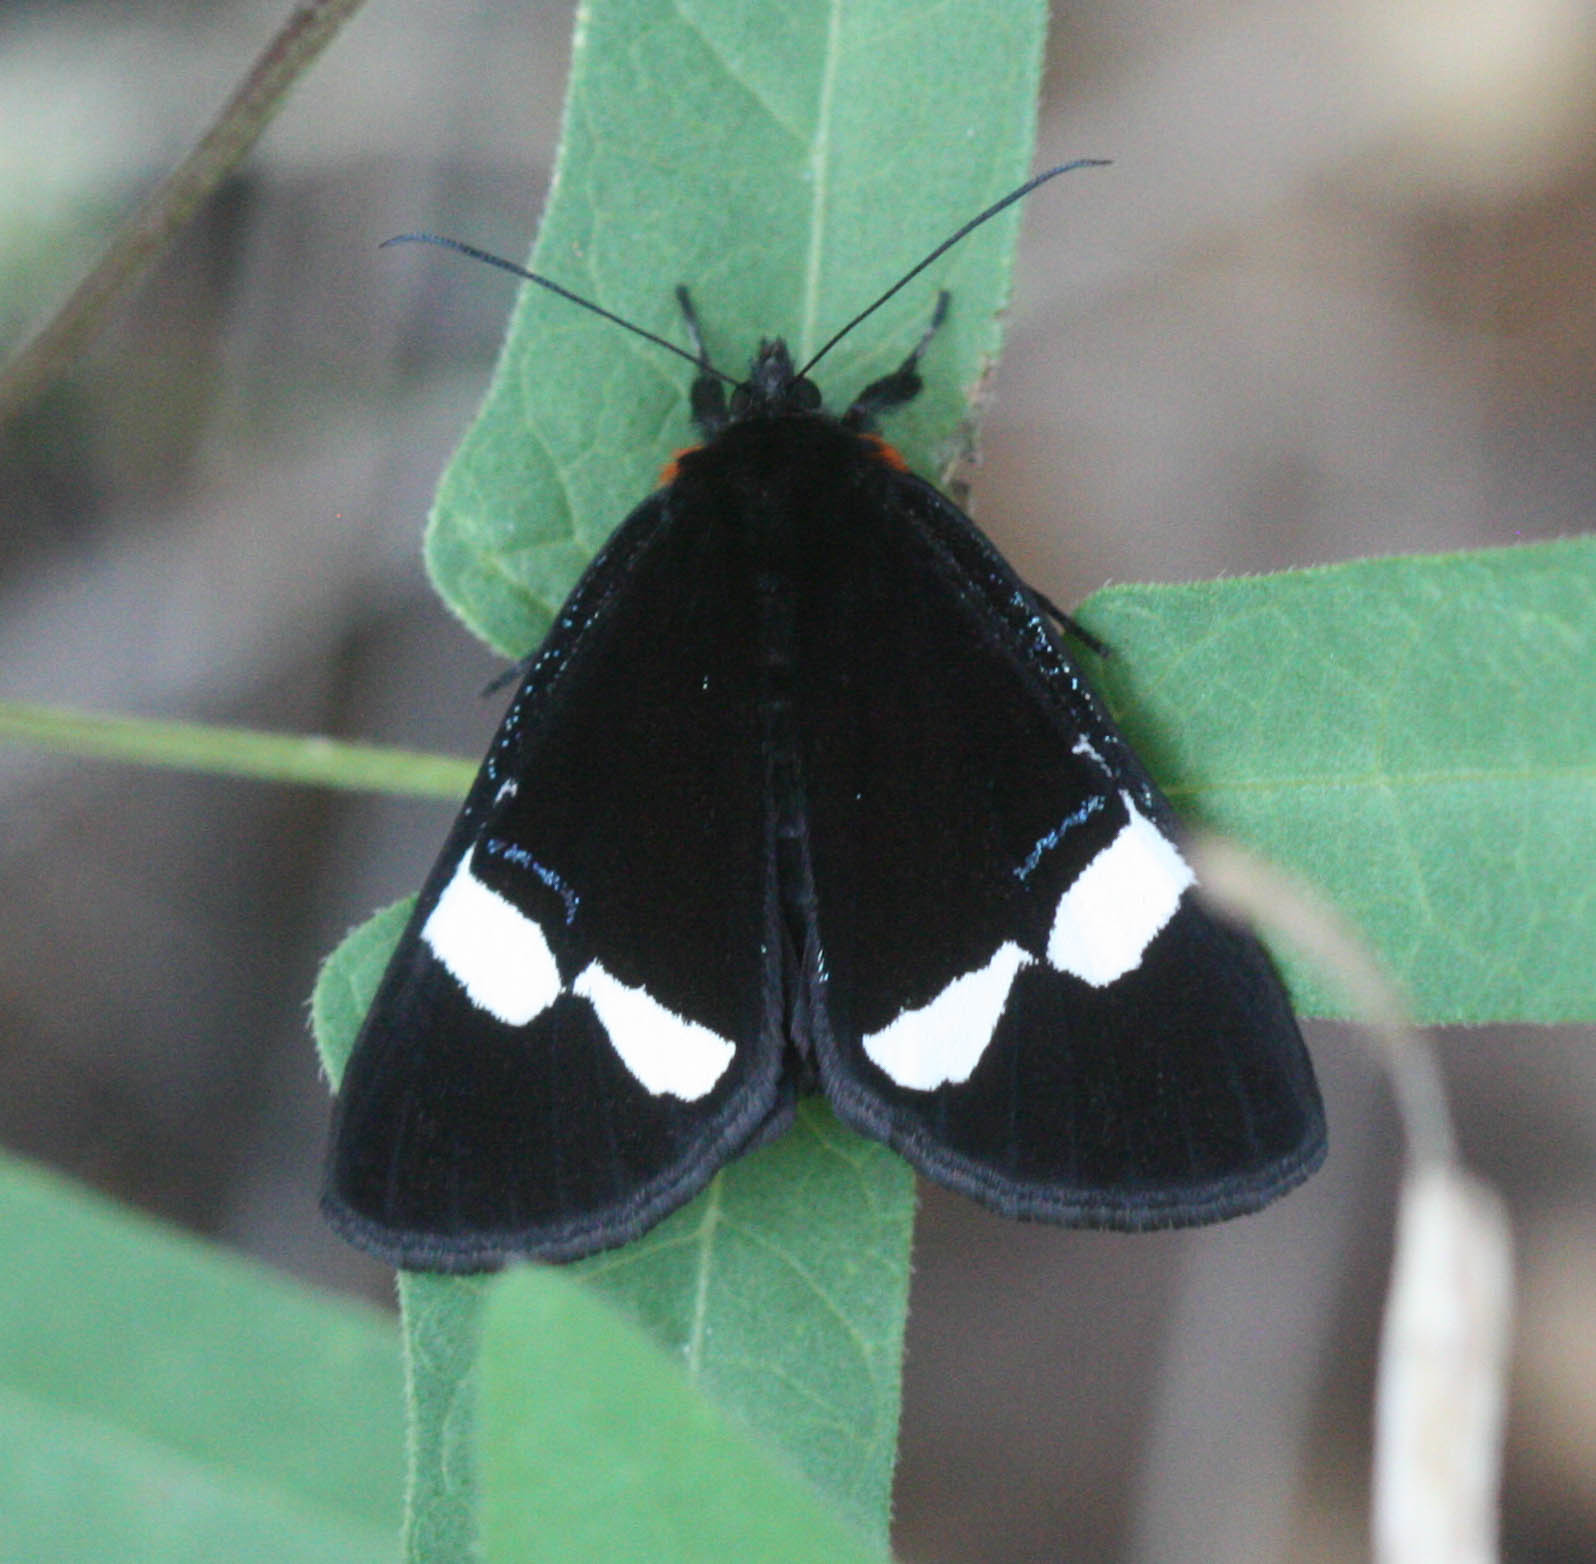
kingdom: Animalia
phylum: Arthropoda
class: Insecta
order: Lepidoptera
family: Noctuidae
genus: Alypiodes
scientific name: Alypiodes geronimo
